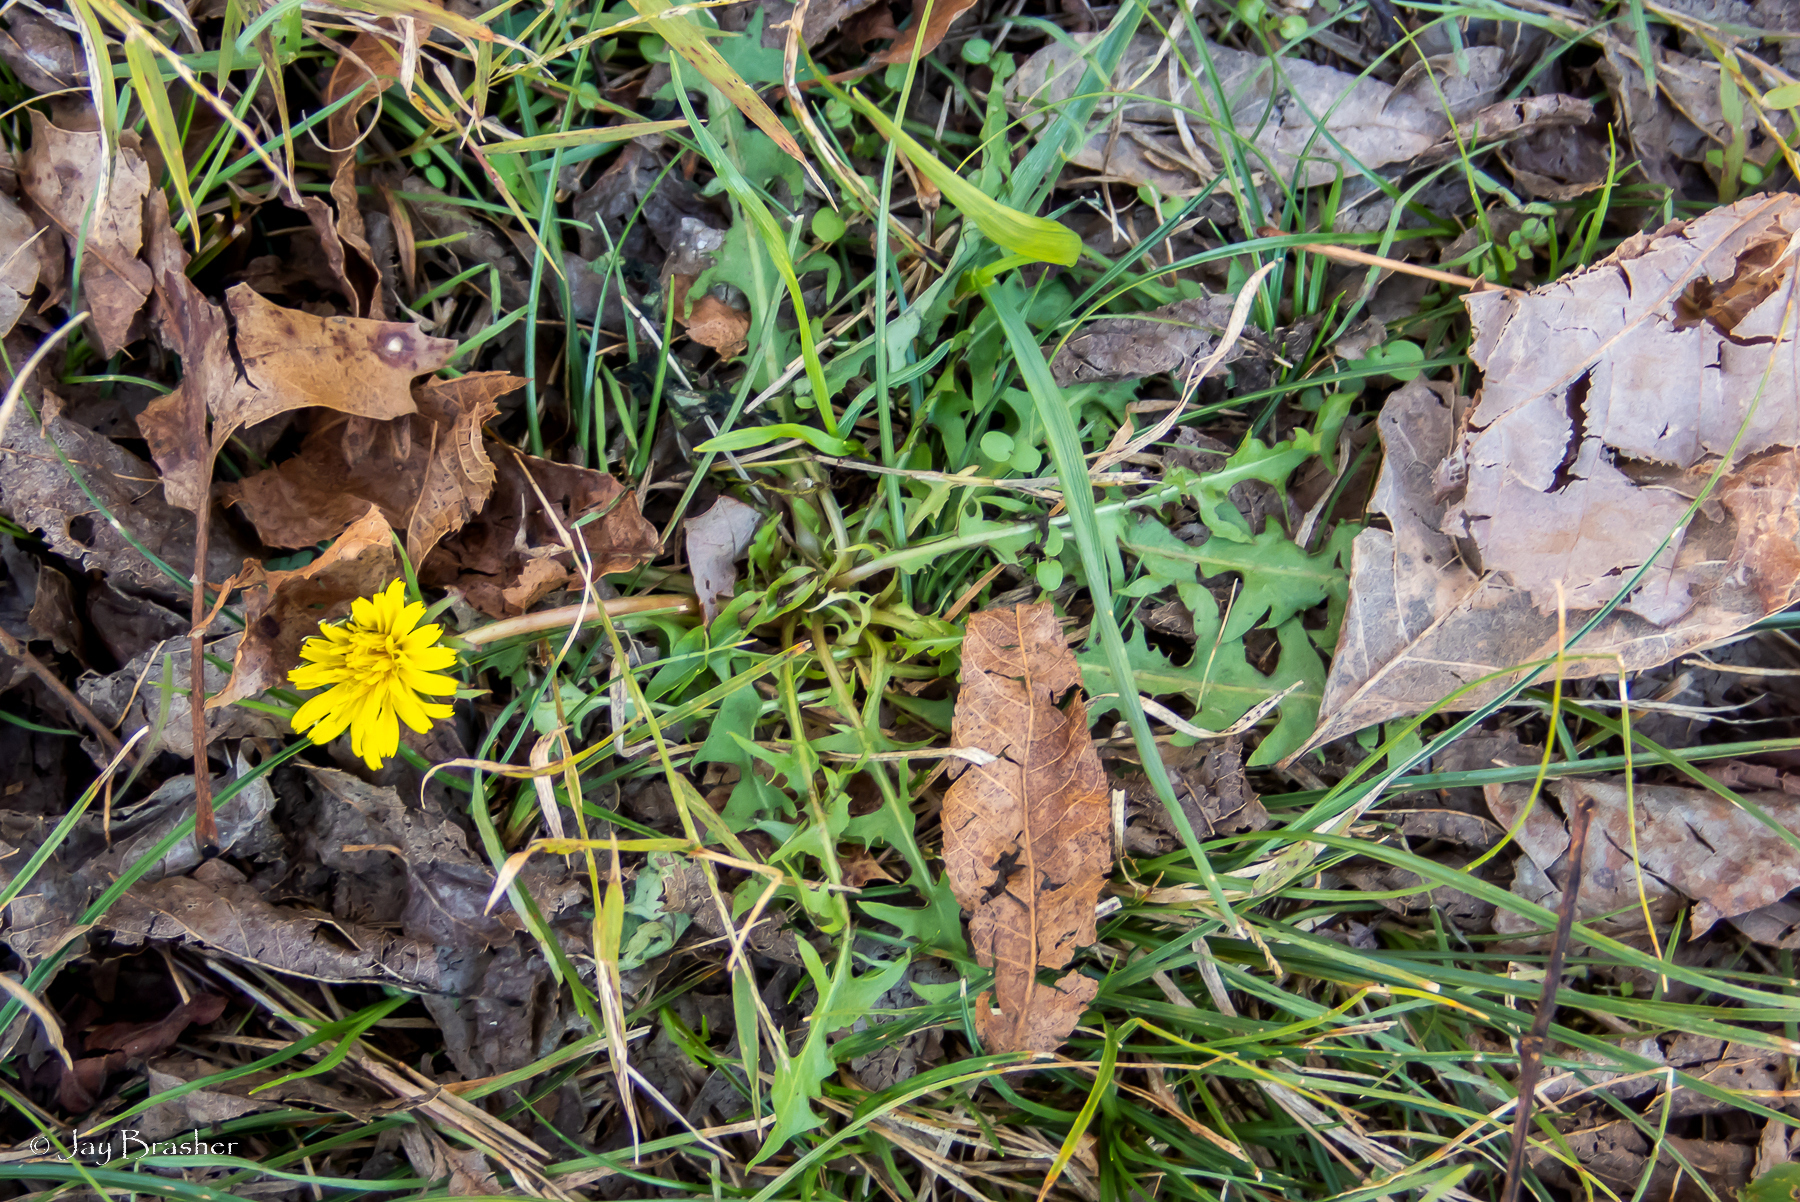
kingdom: Plantae
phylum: Tracheophyta
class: Magnoliopsida
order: Asterales
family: Asteraceae
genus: Taraxacum
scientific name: Taraxacum officinale
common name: Common dandelion
